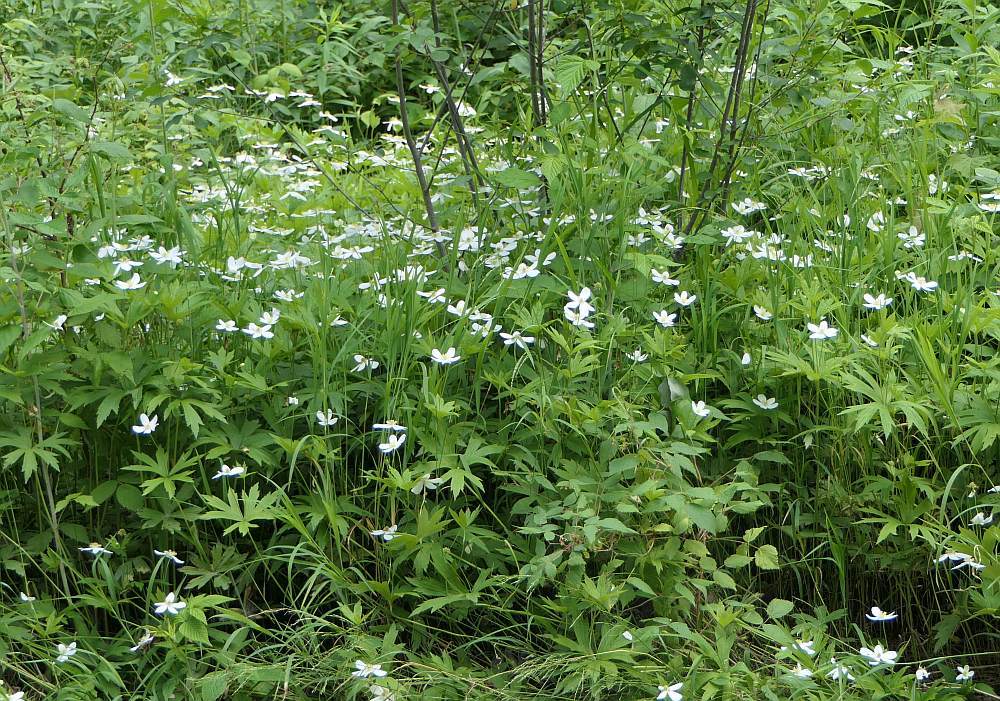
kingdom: Plantae
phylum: Tracheophyta
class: Magnoliopsida
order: Ranunculales
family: Ranunculaceae
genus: Anemonastrum
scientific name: Anemonastrum canadense
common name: Canada anemone
